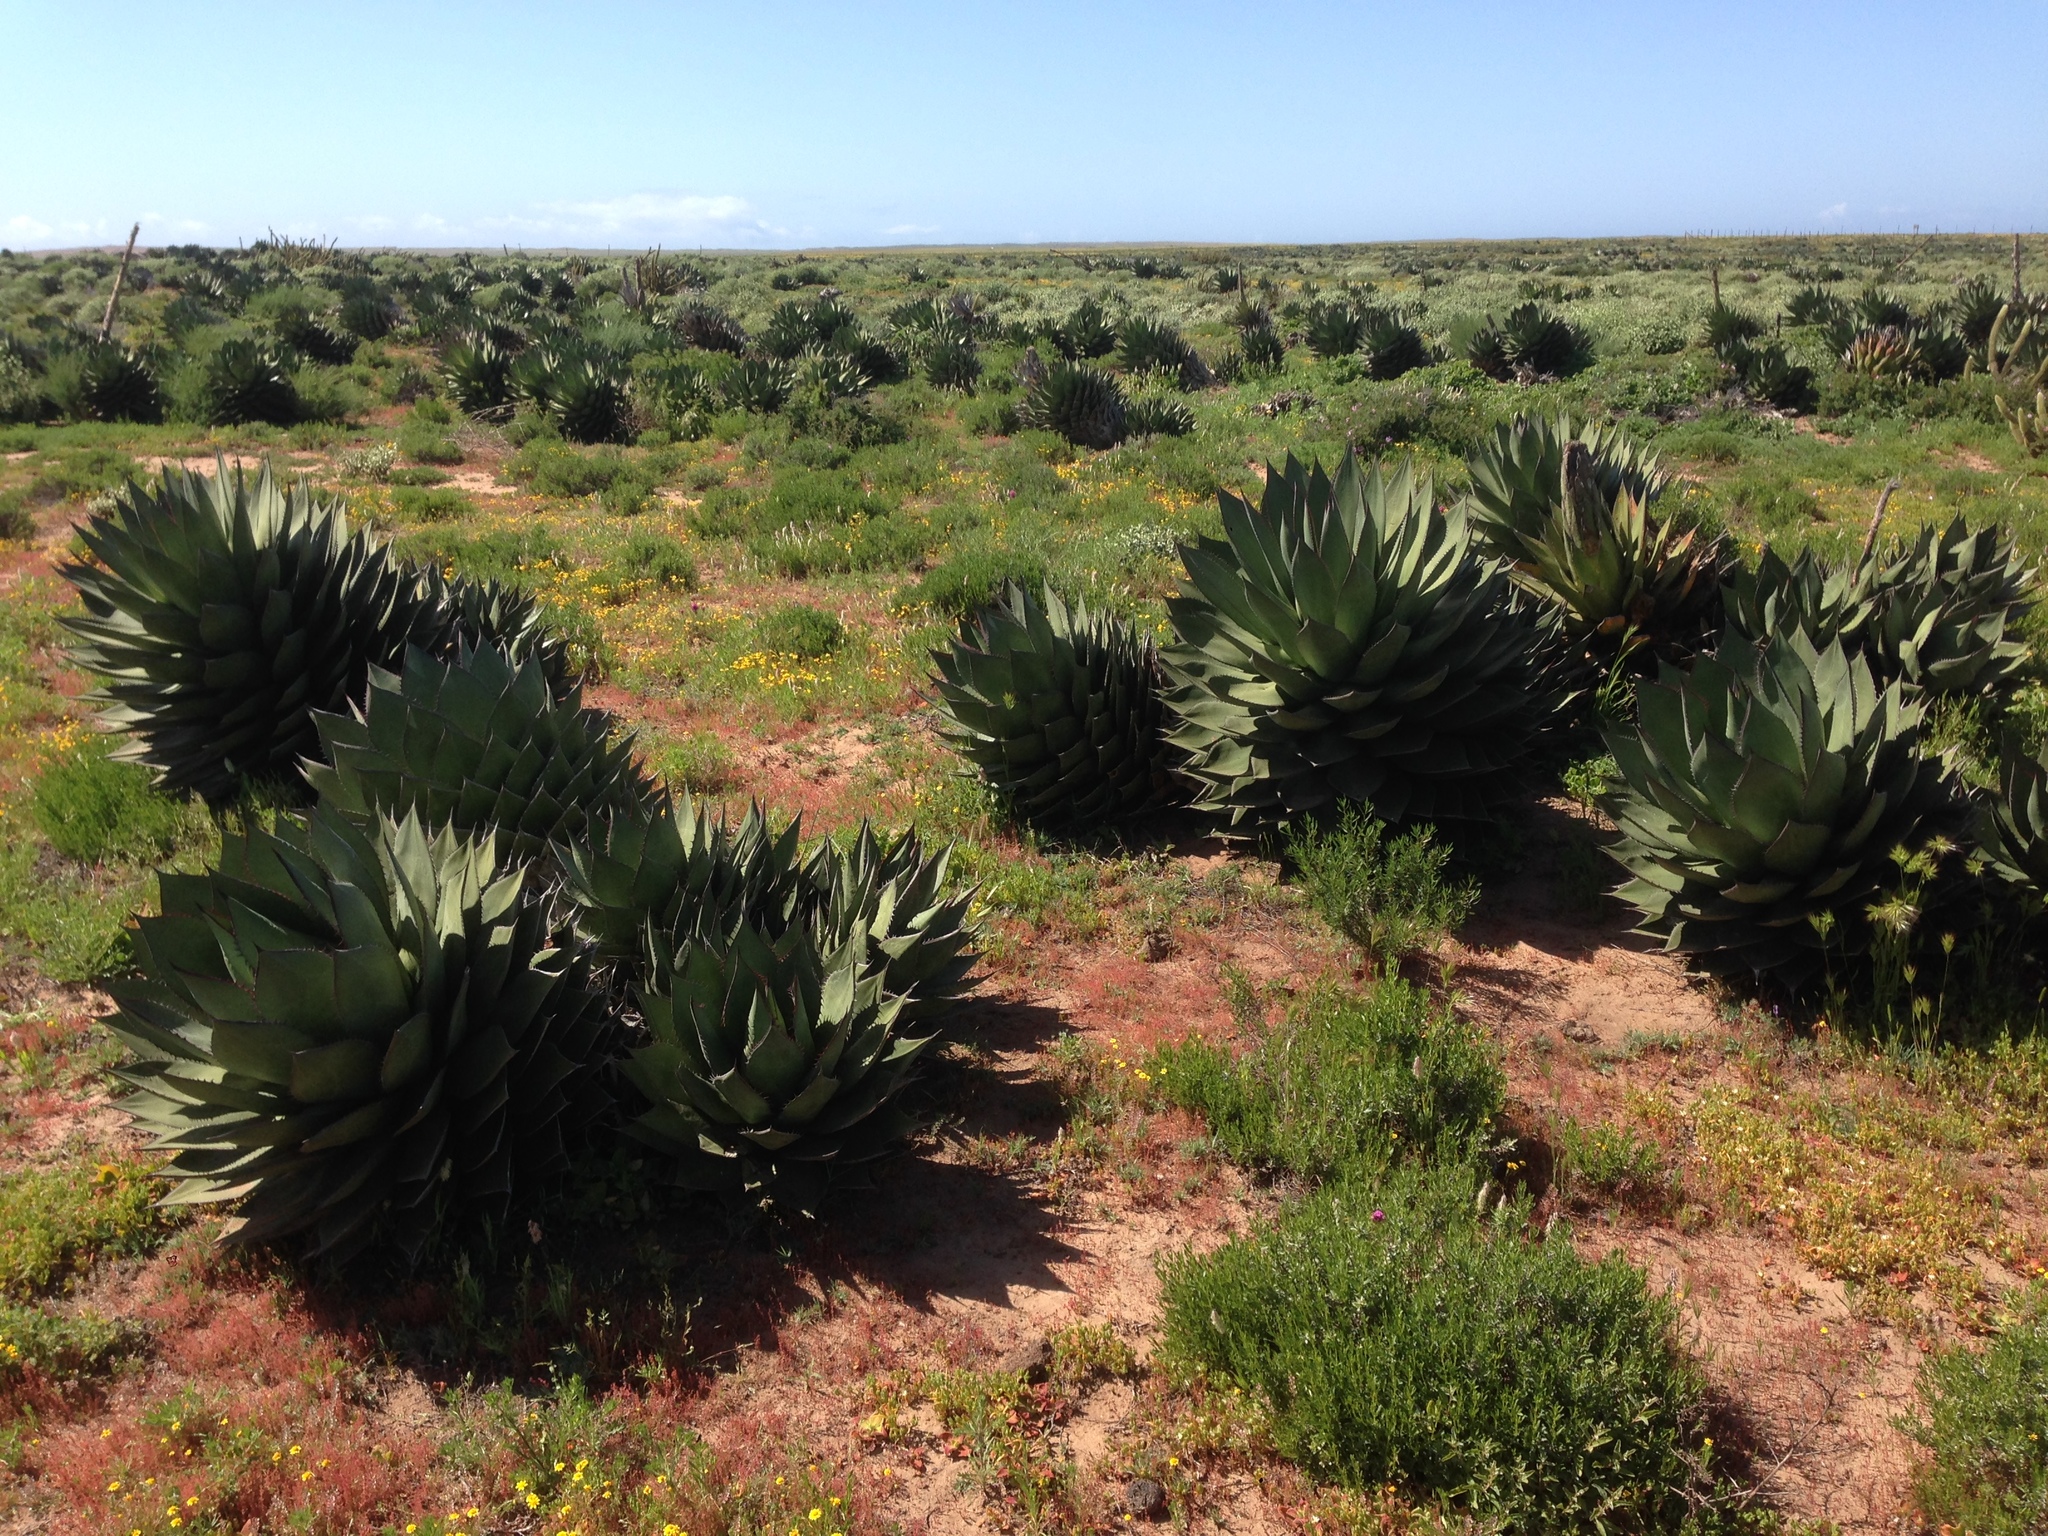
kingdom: Plantae
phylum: Tracheophyta
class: Liliopsida
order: Asparagales
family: Asparagaceae
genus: Agave
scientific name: Agave shawii
